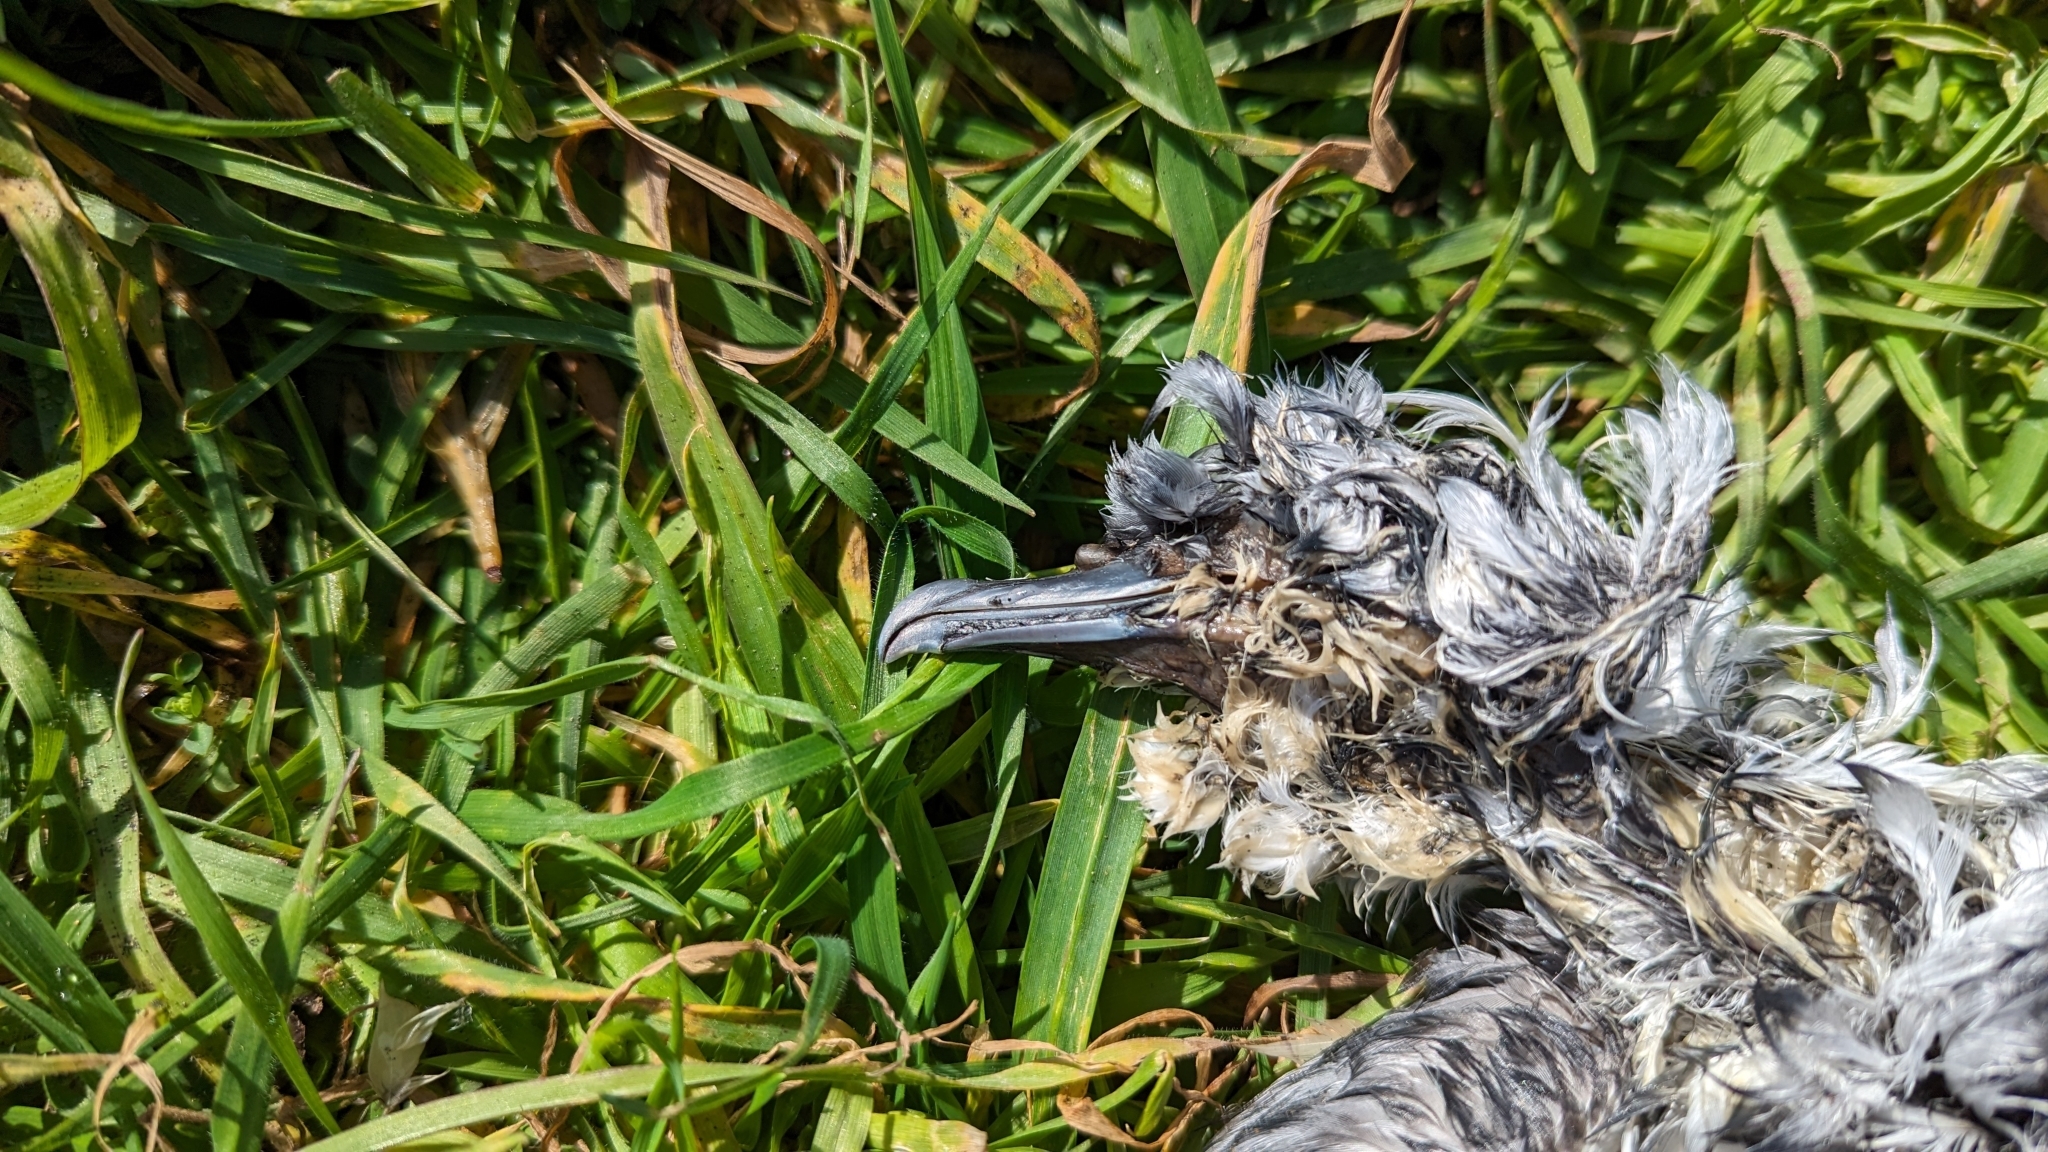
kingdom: Animalia
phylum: Chordata
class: Aves
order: Procellariiformes
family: Procellariidae
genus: Pachyptila
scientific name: Pachyptila salvini
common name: Salvin's prion
